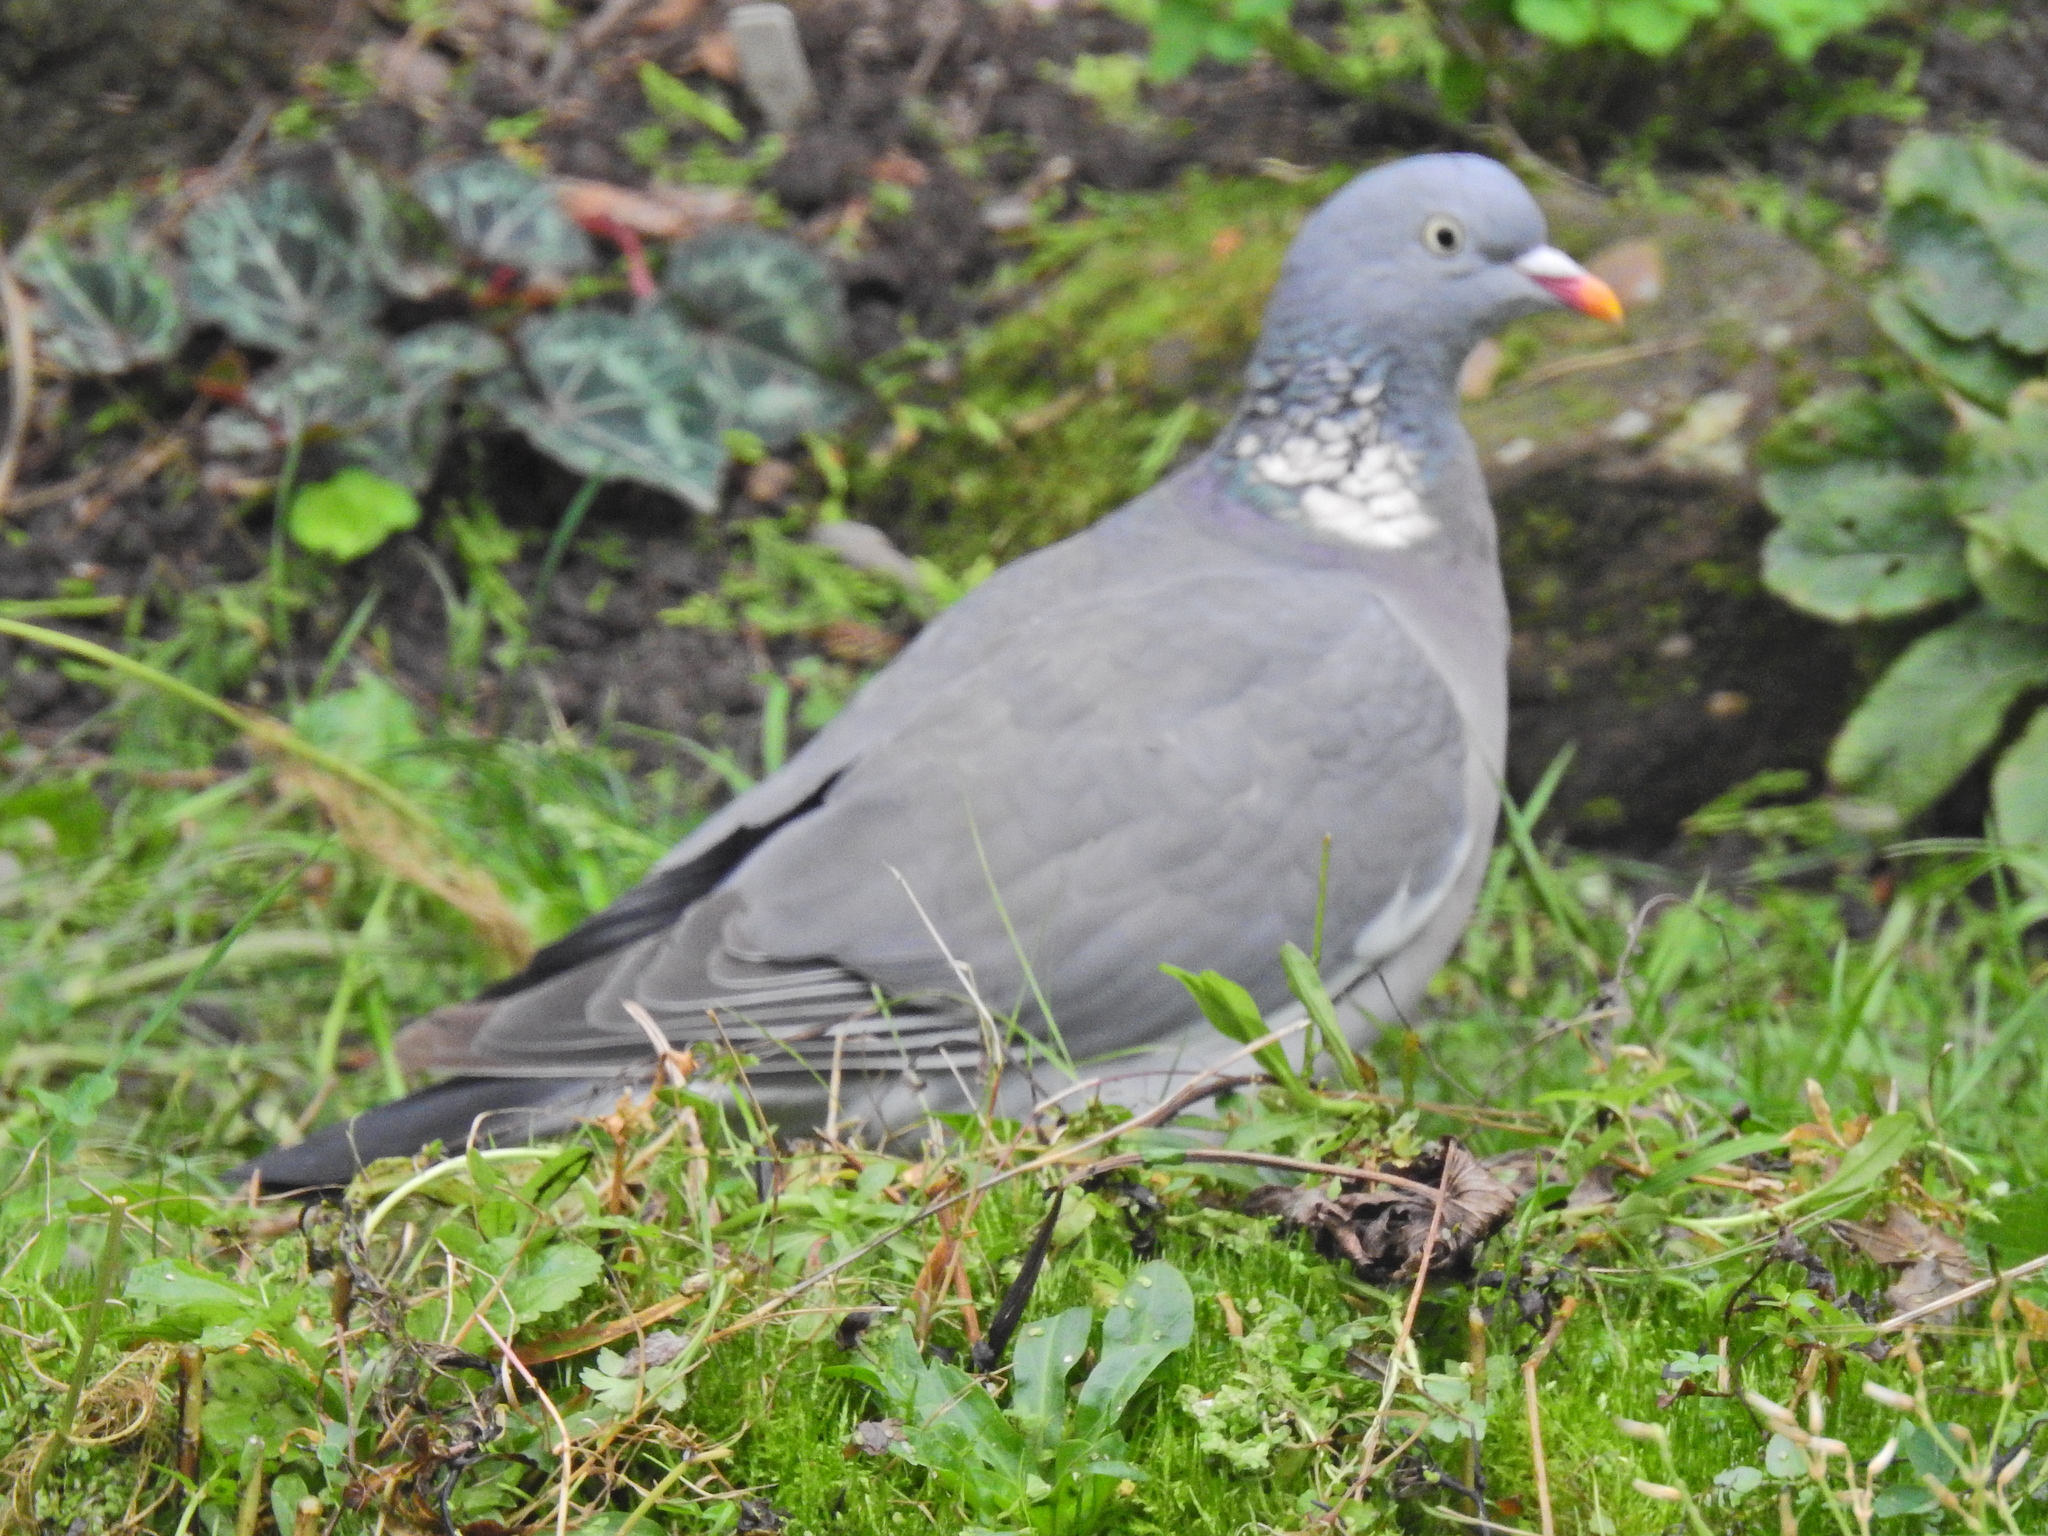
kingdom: Animalia
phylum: Chordata
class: Aves
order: Columbiformes
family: Columbidae
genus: Columba
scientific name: Columba palumbus
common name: Common wood pigeon
